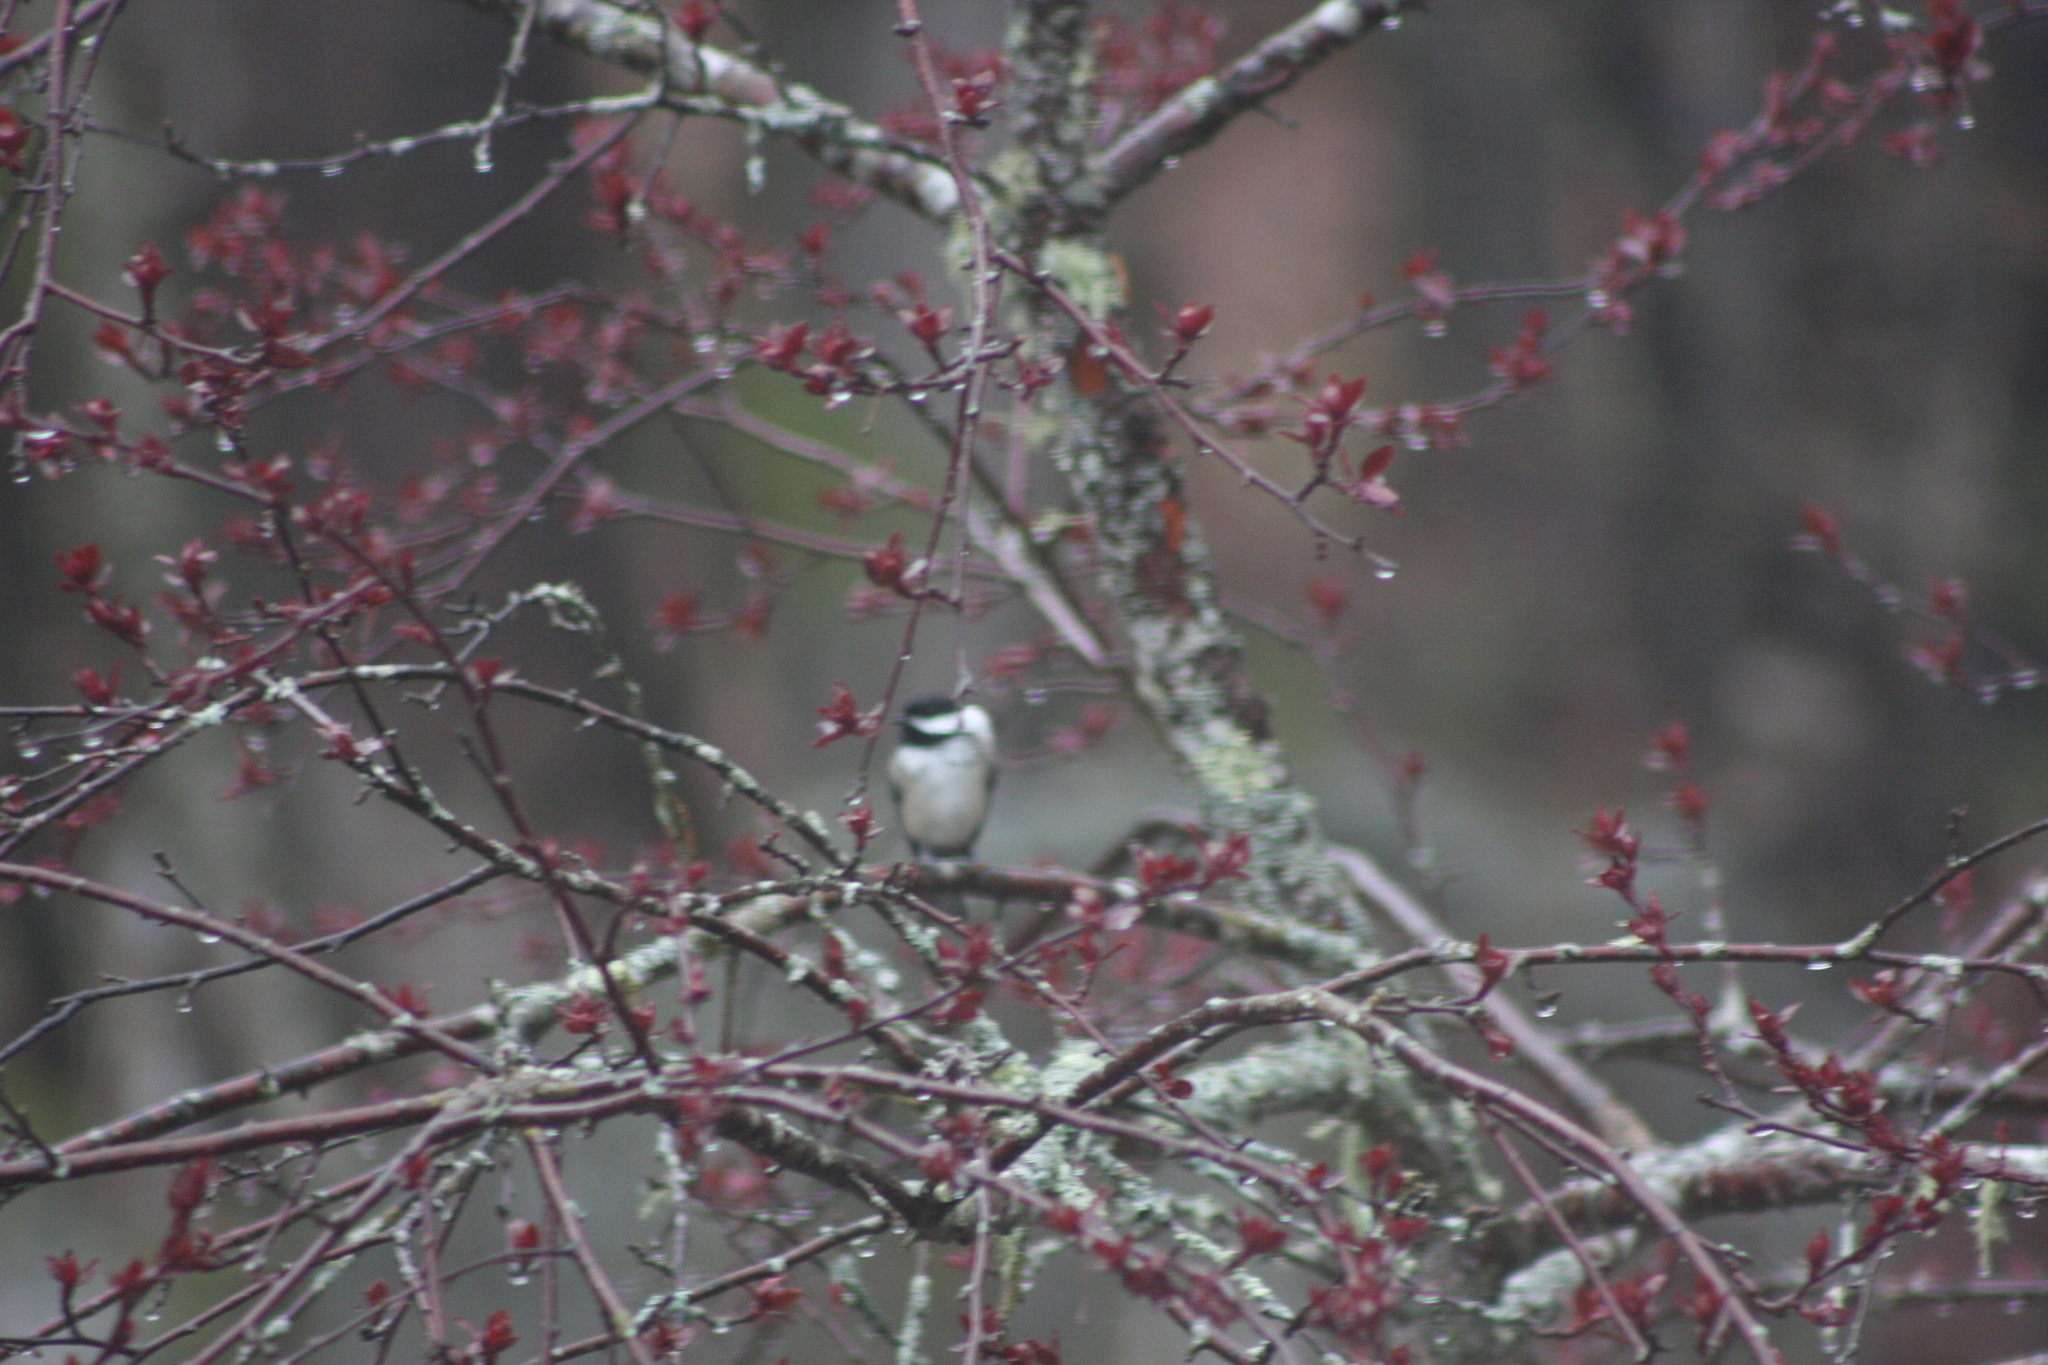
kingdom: Animalia
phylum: Chordata
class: Aves
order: Passeriformes
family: Paridae
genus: Poecile
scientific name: Poecile atricapillus
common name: Black-capped chickadee
